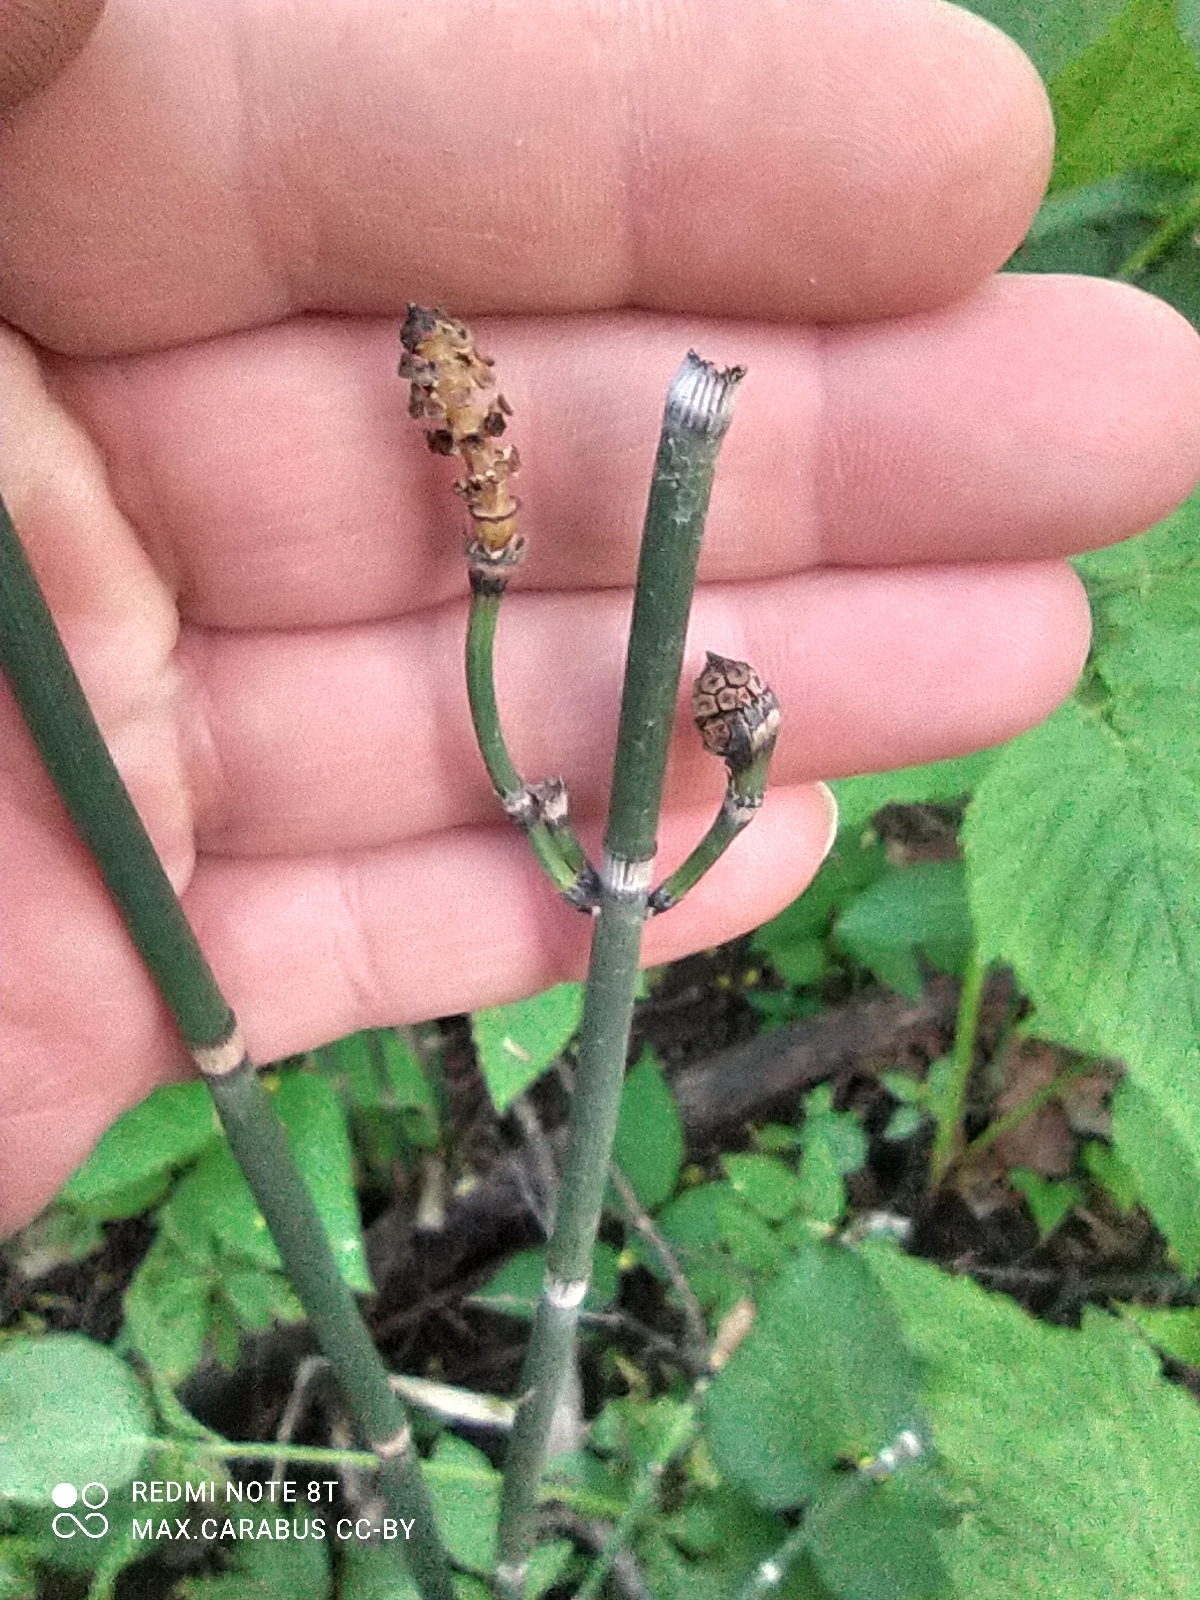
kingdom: Plantae
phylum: Tracheophyta
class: Polypodiopsida
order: Equisetales
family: Equisetaceae
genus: Equisetum
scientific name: Equisetum hyemale
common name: Rough horsetail
